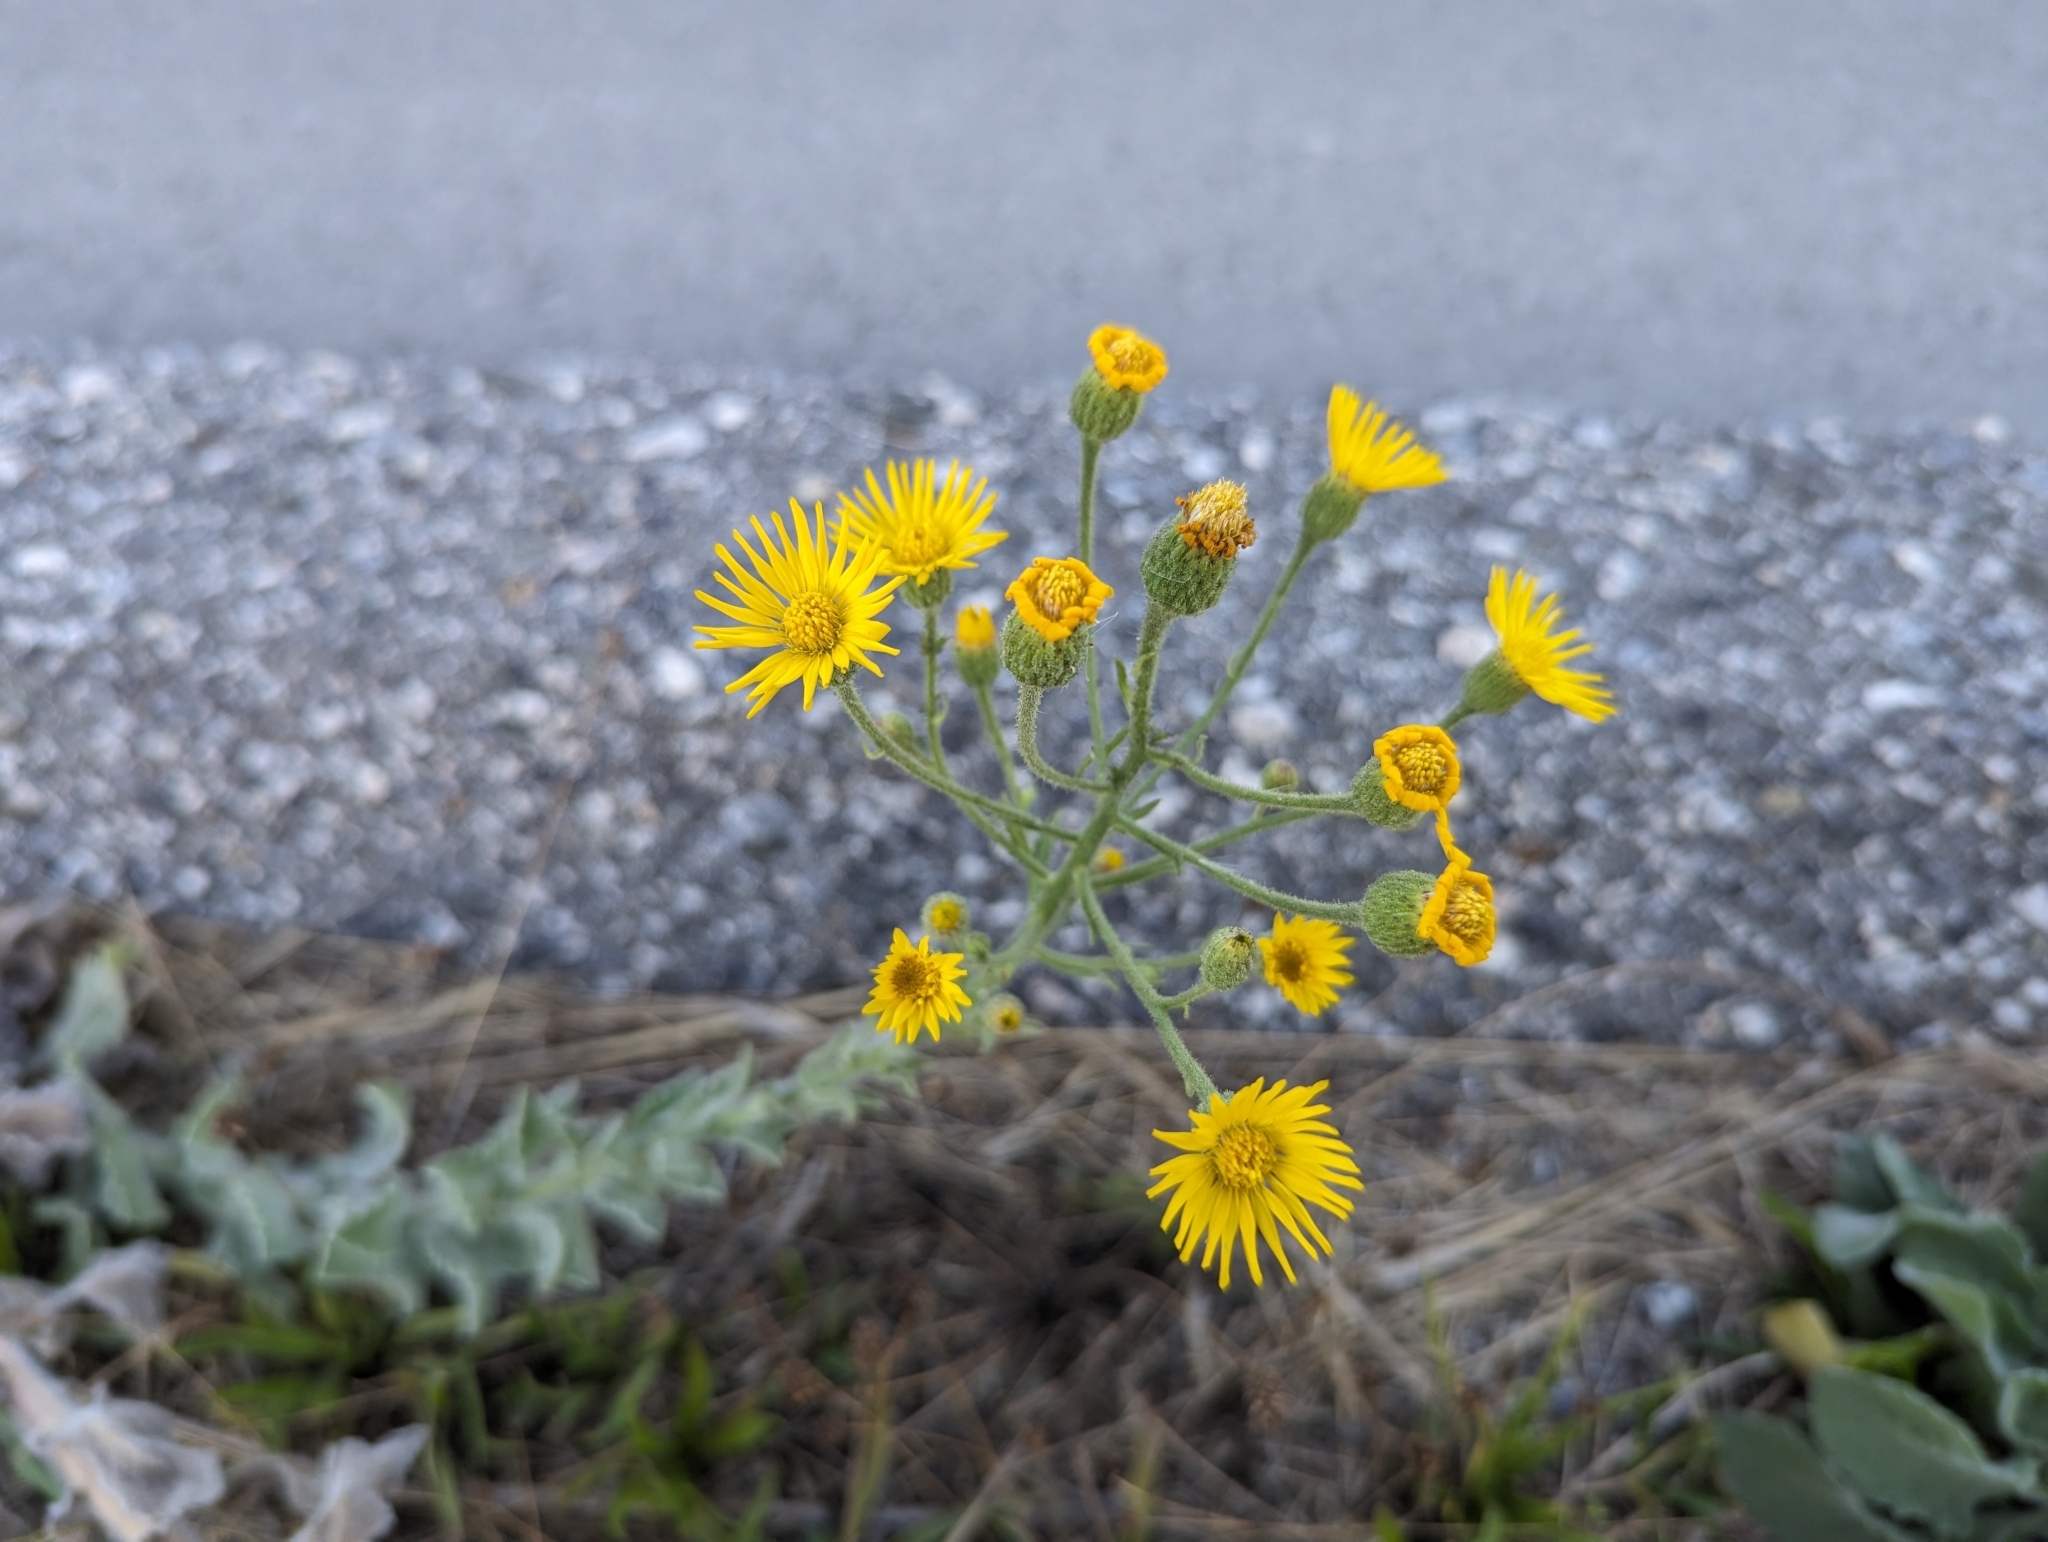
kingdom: Plantae
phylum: Tracheophyta
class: Magnoliopsida
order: Asterales
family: Asteraceae
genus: Heterotheca
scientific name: Heterotheca grandiflora
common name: Telegraphweed
